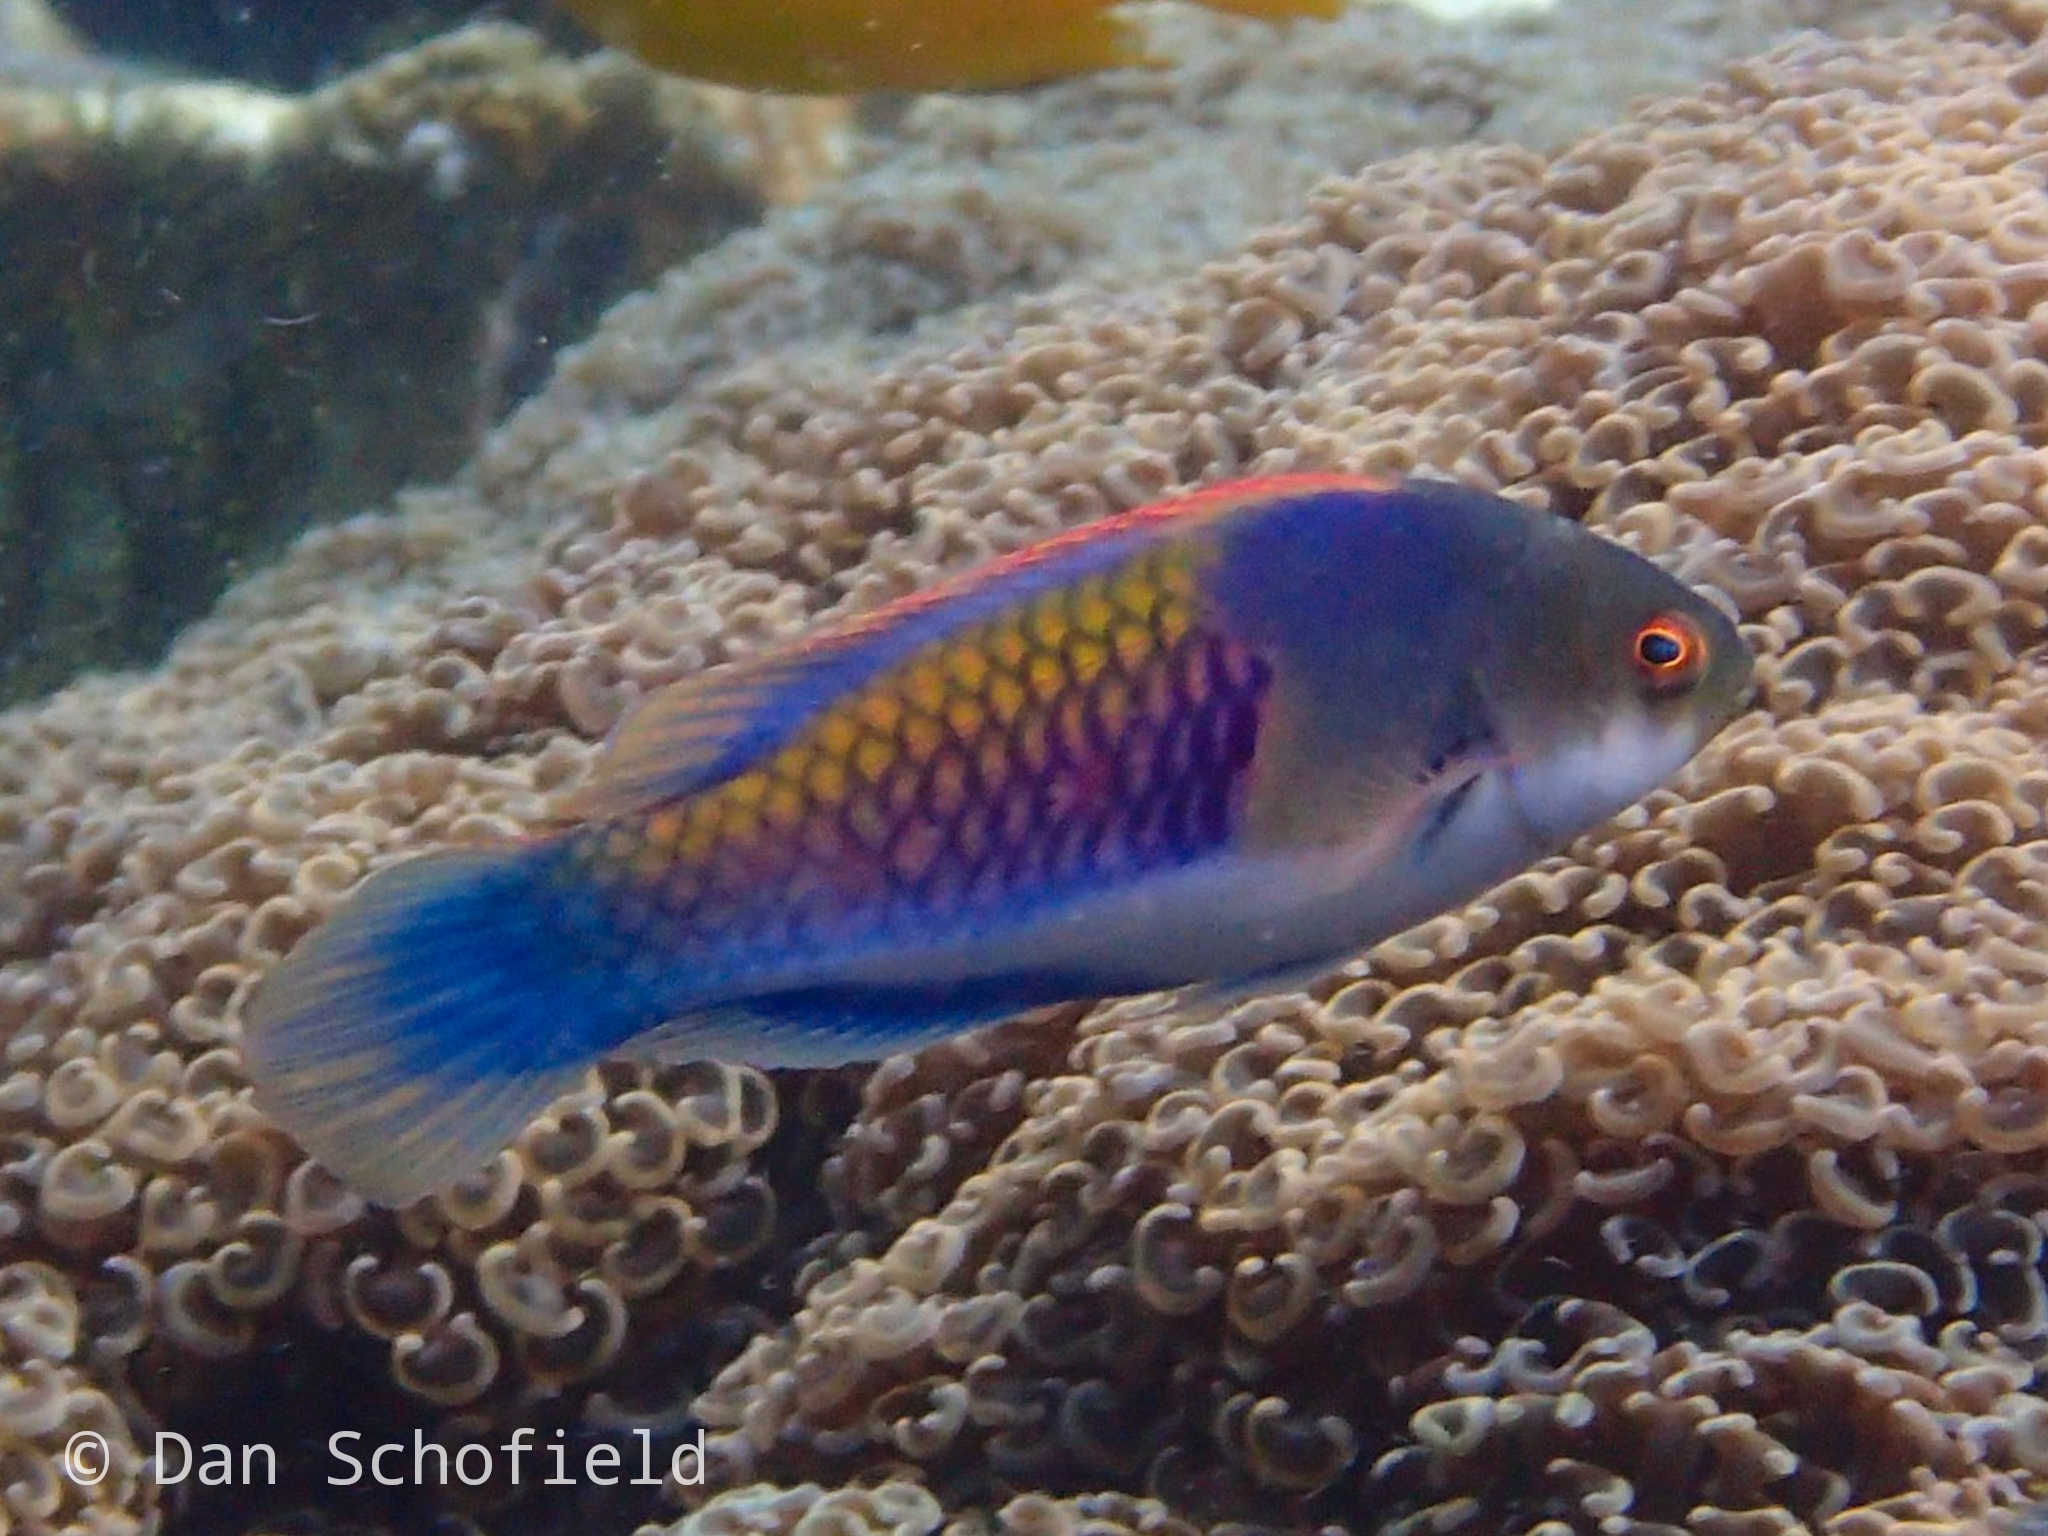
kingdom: Animalia
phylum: Chordata
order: Perciformes
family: Labridae
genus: Cirrhilabrus
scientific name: Cirrhilabrus cyanopleura
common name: Coralline wrasse
